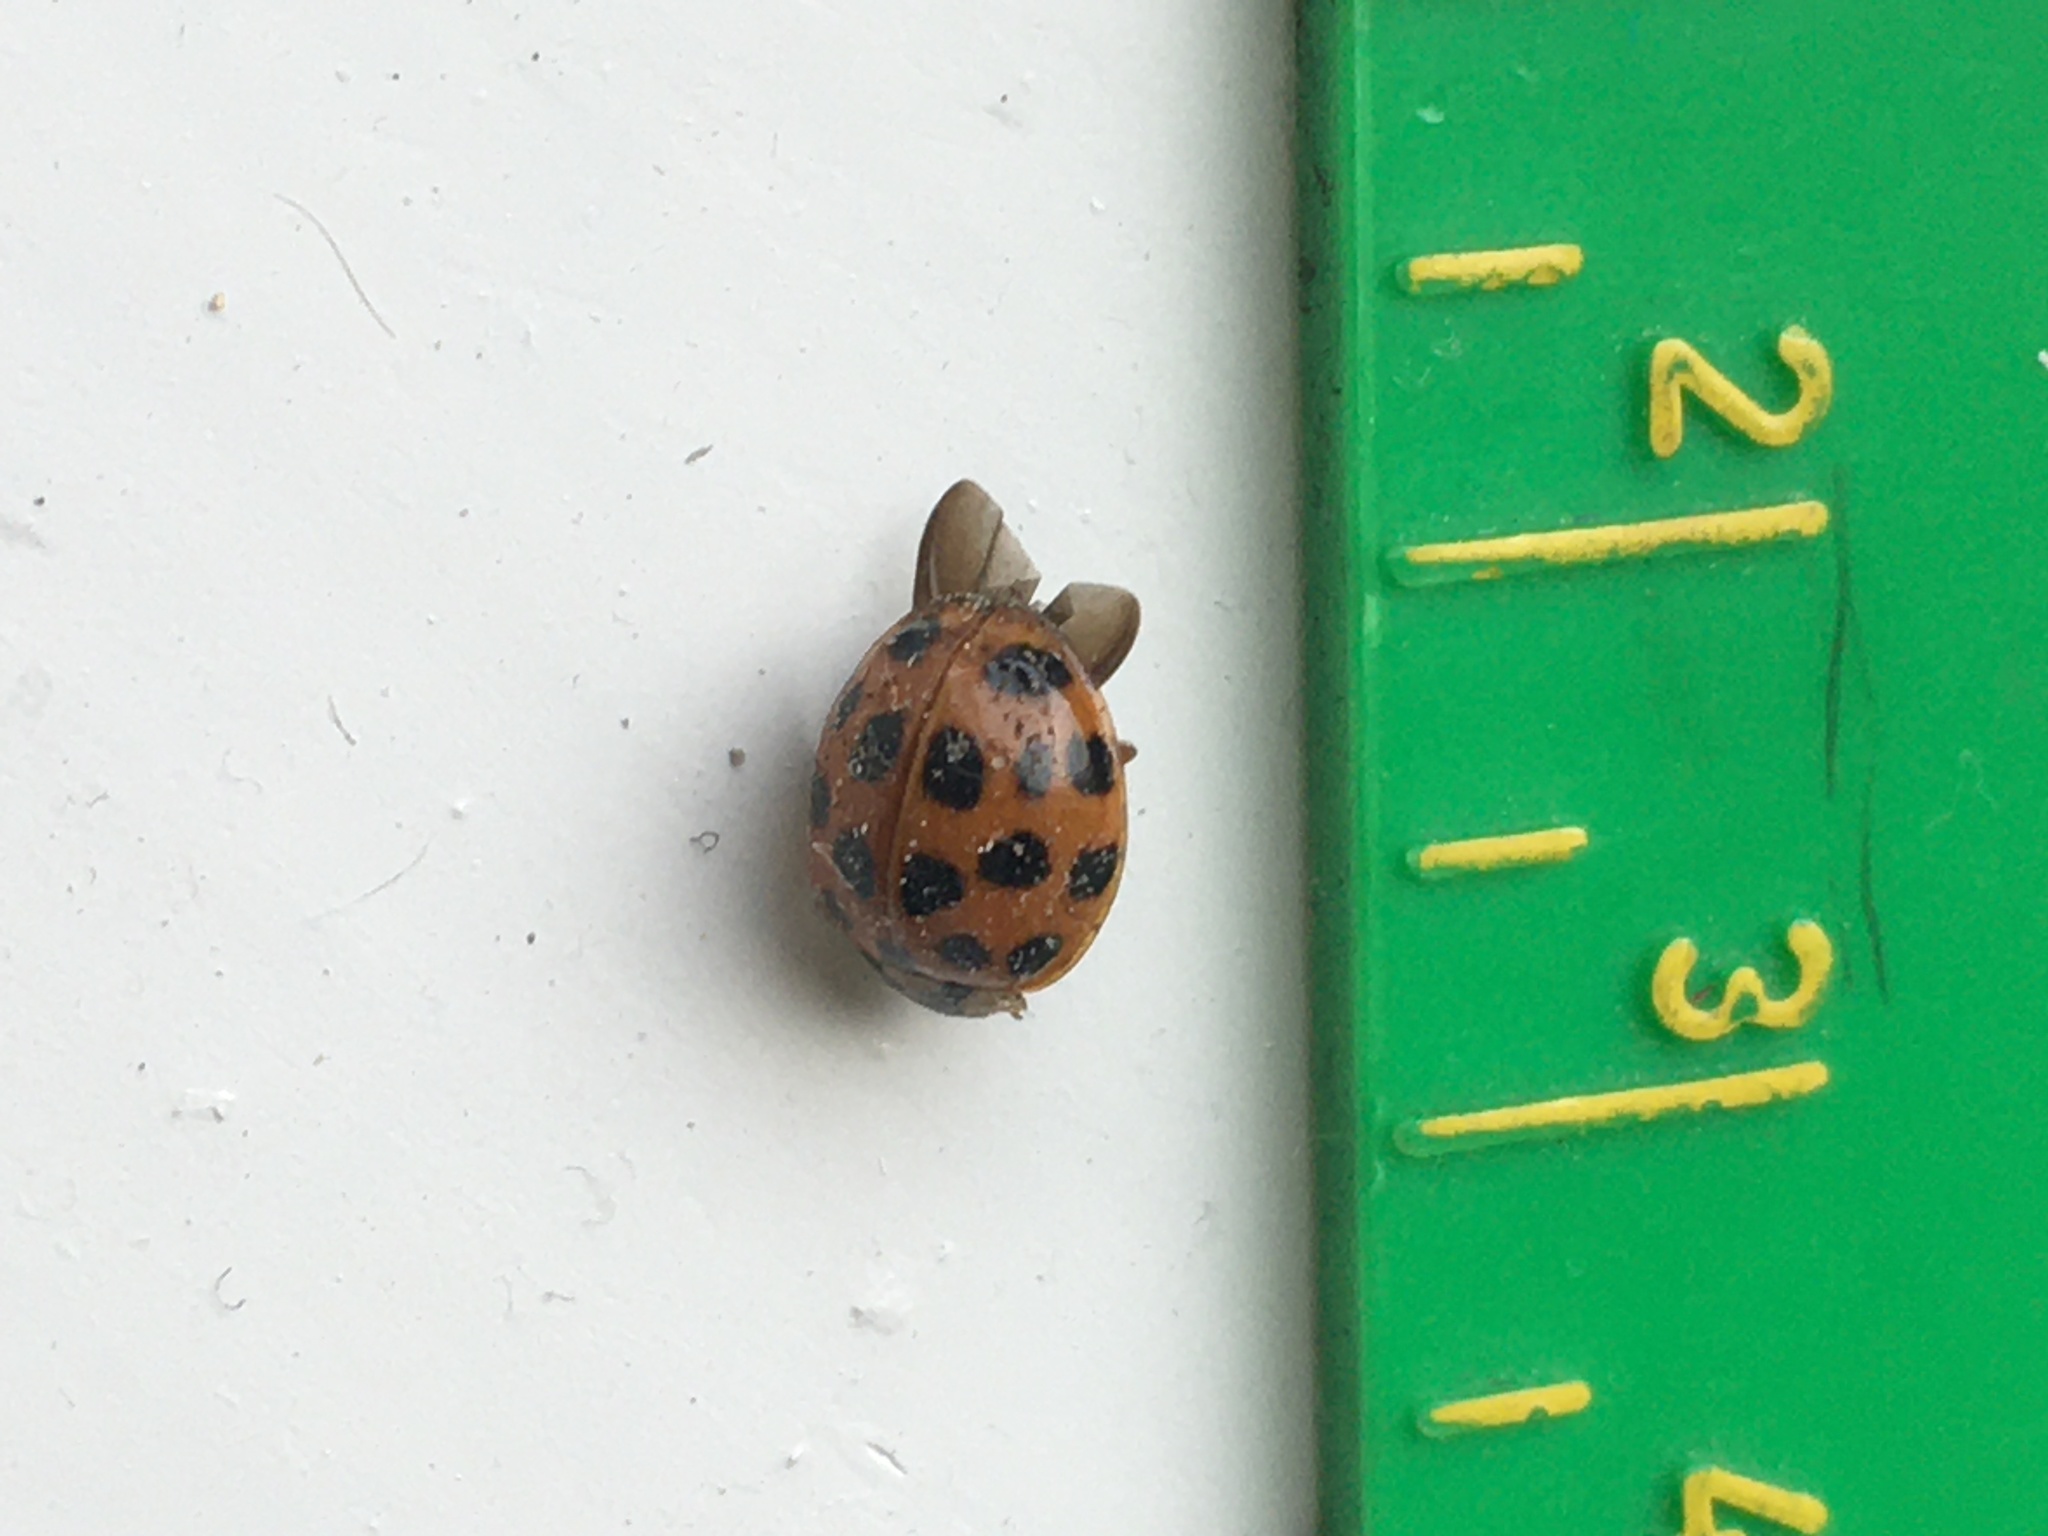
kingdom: Animalia
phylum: Arthropoda
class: Insecta
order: Coleoptera
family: Coccinellidae
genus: Harmonia
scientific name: Harmonia axyridis
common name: Harlequin ladybird
